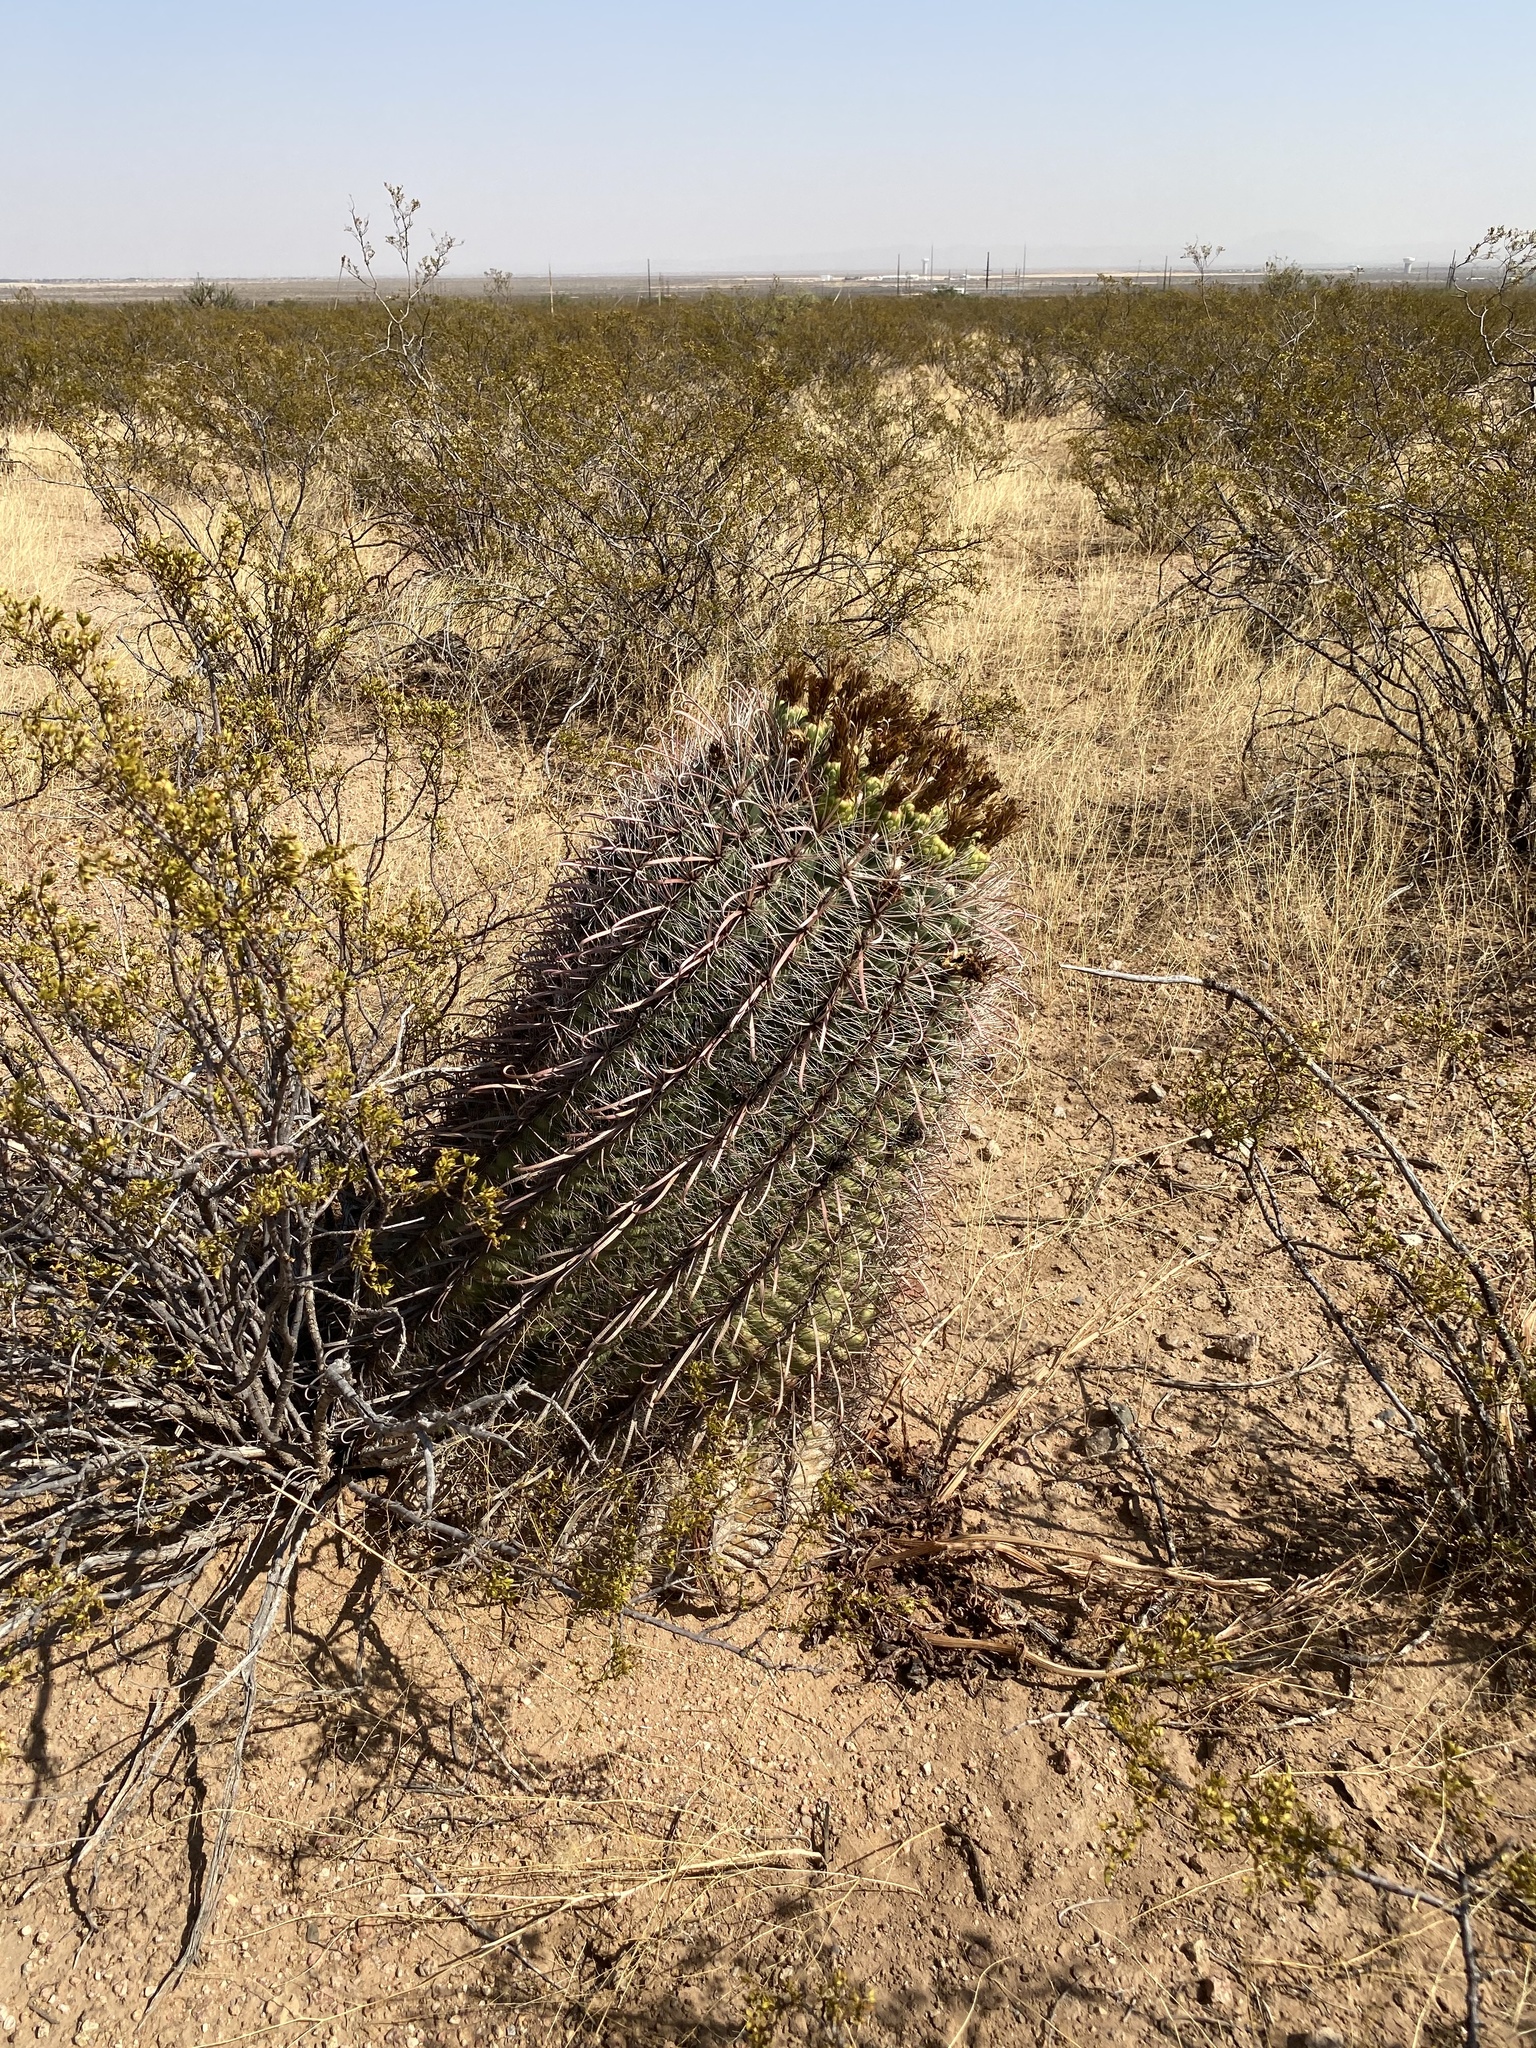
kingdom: Plantae
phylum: Tracheophyta
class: Magnoliopsida
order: Caryophyllales
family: Cactaceae
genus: Ferocactus
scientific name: Ferocactus wislizeni
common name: Candy barrel cactus
